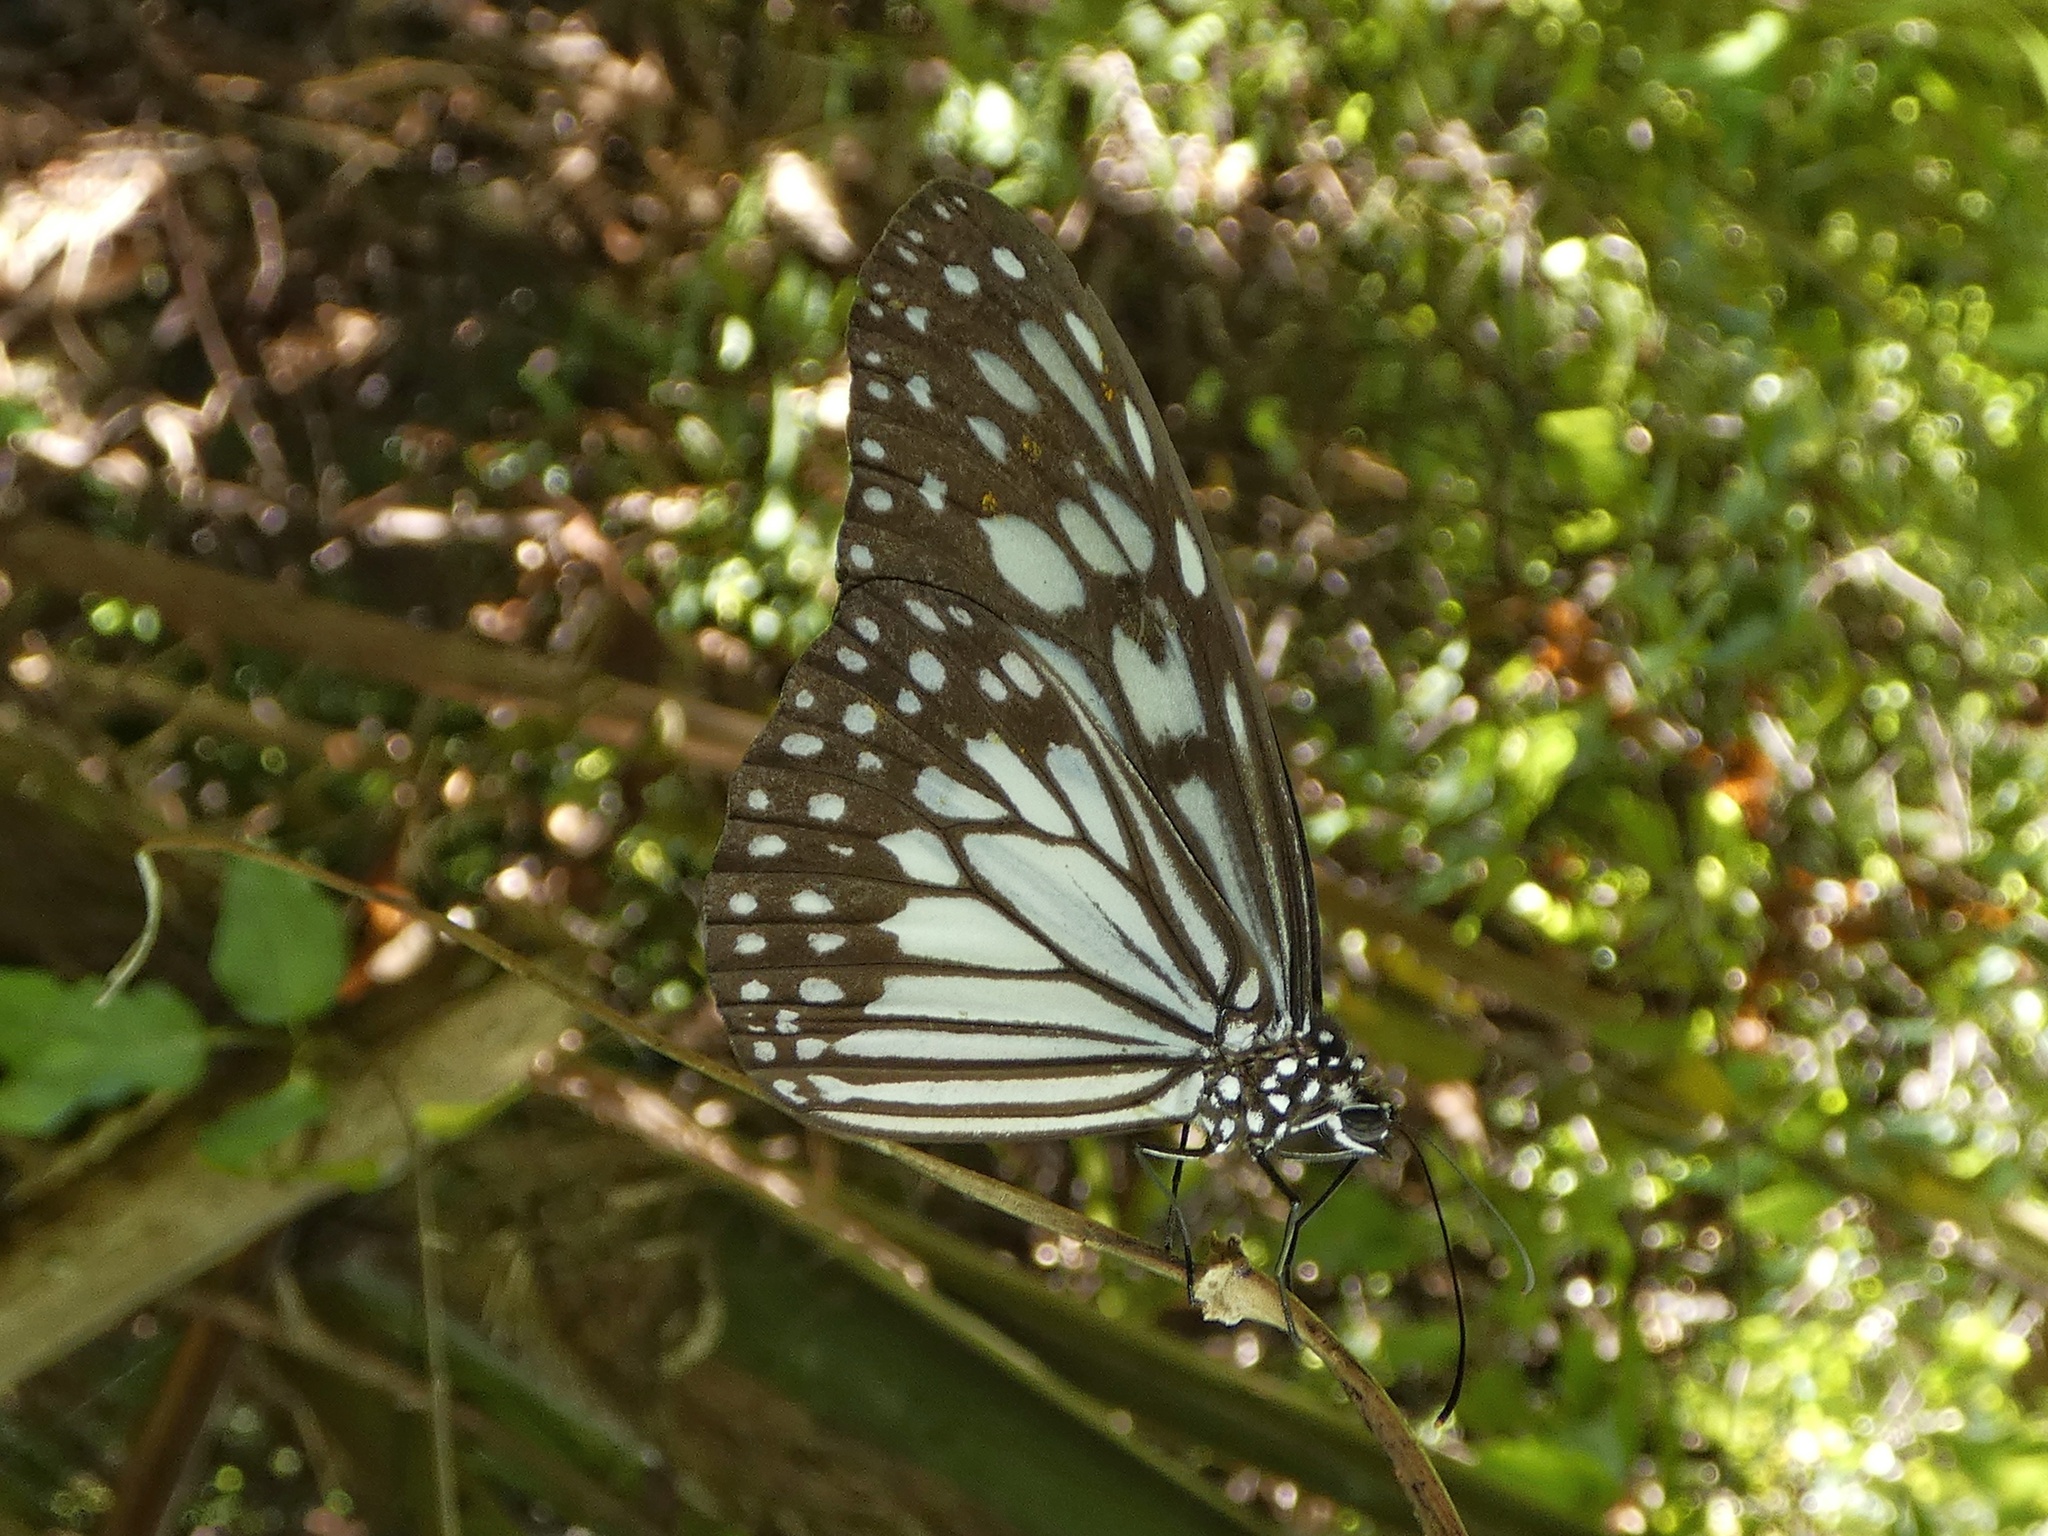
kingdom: Animalia
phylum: Arthropoda
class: Insecta
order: Lepidoptera
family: Nymphalidae
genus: Ideopsis
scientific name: Ideopsis juventa
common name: Grey glassy tiger
